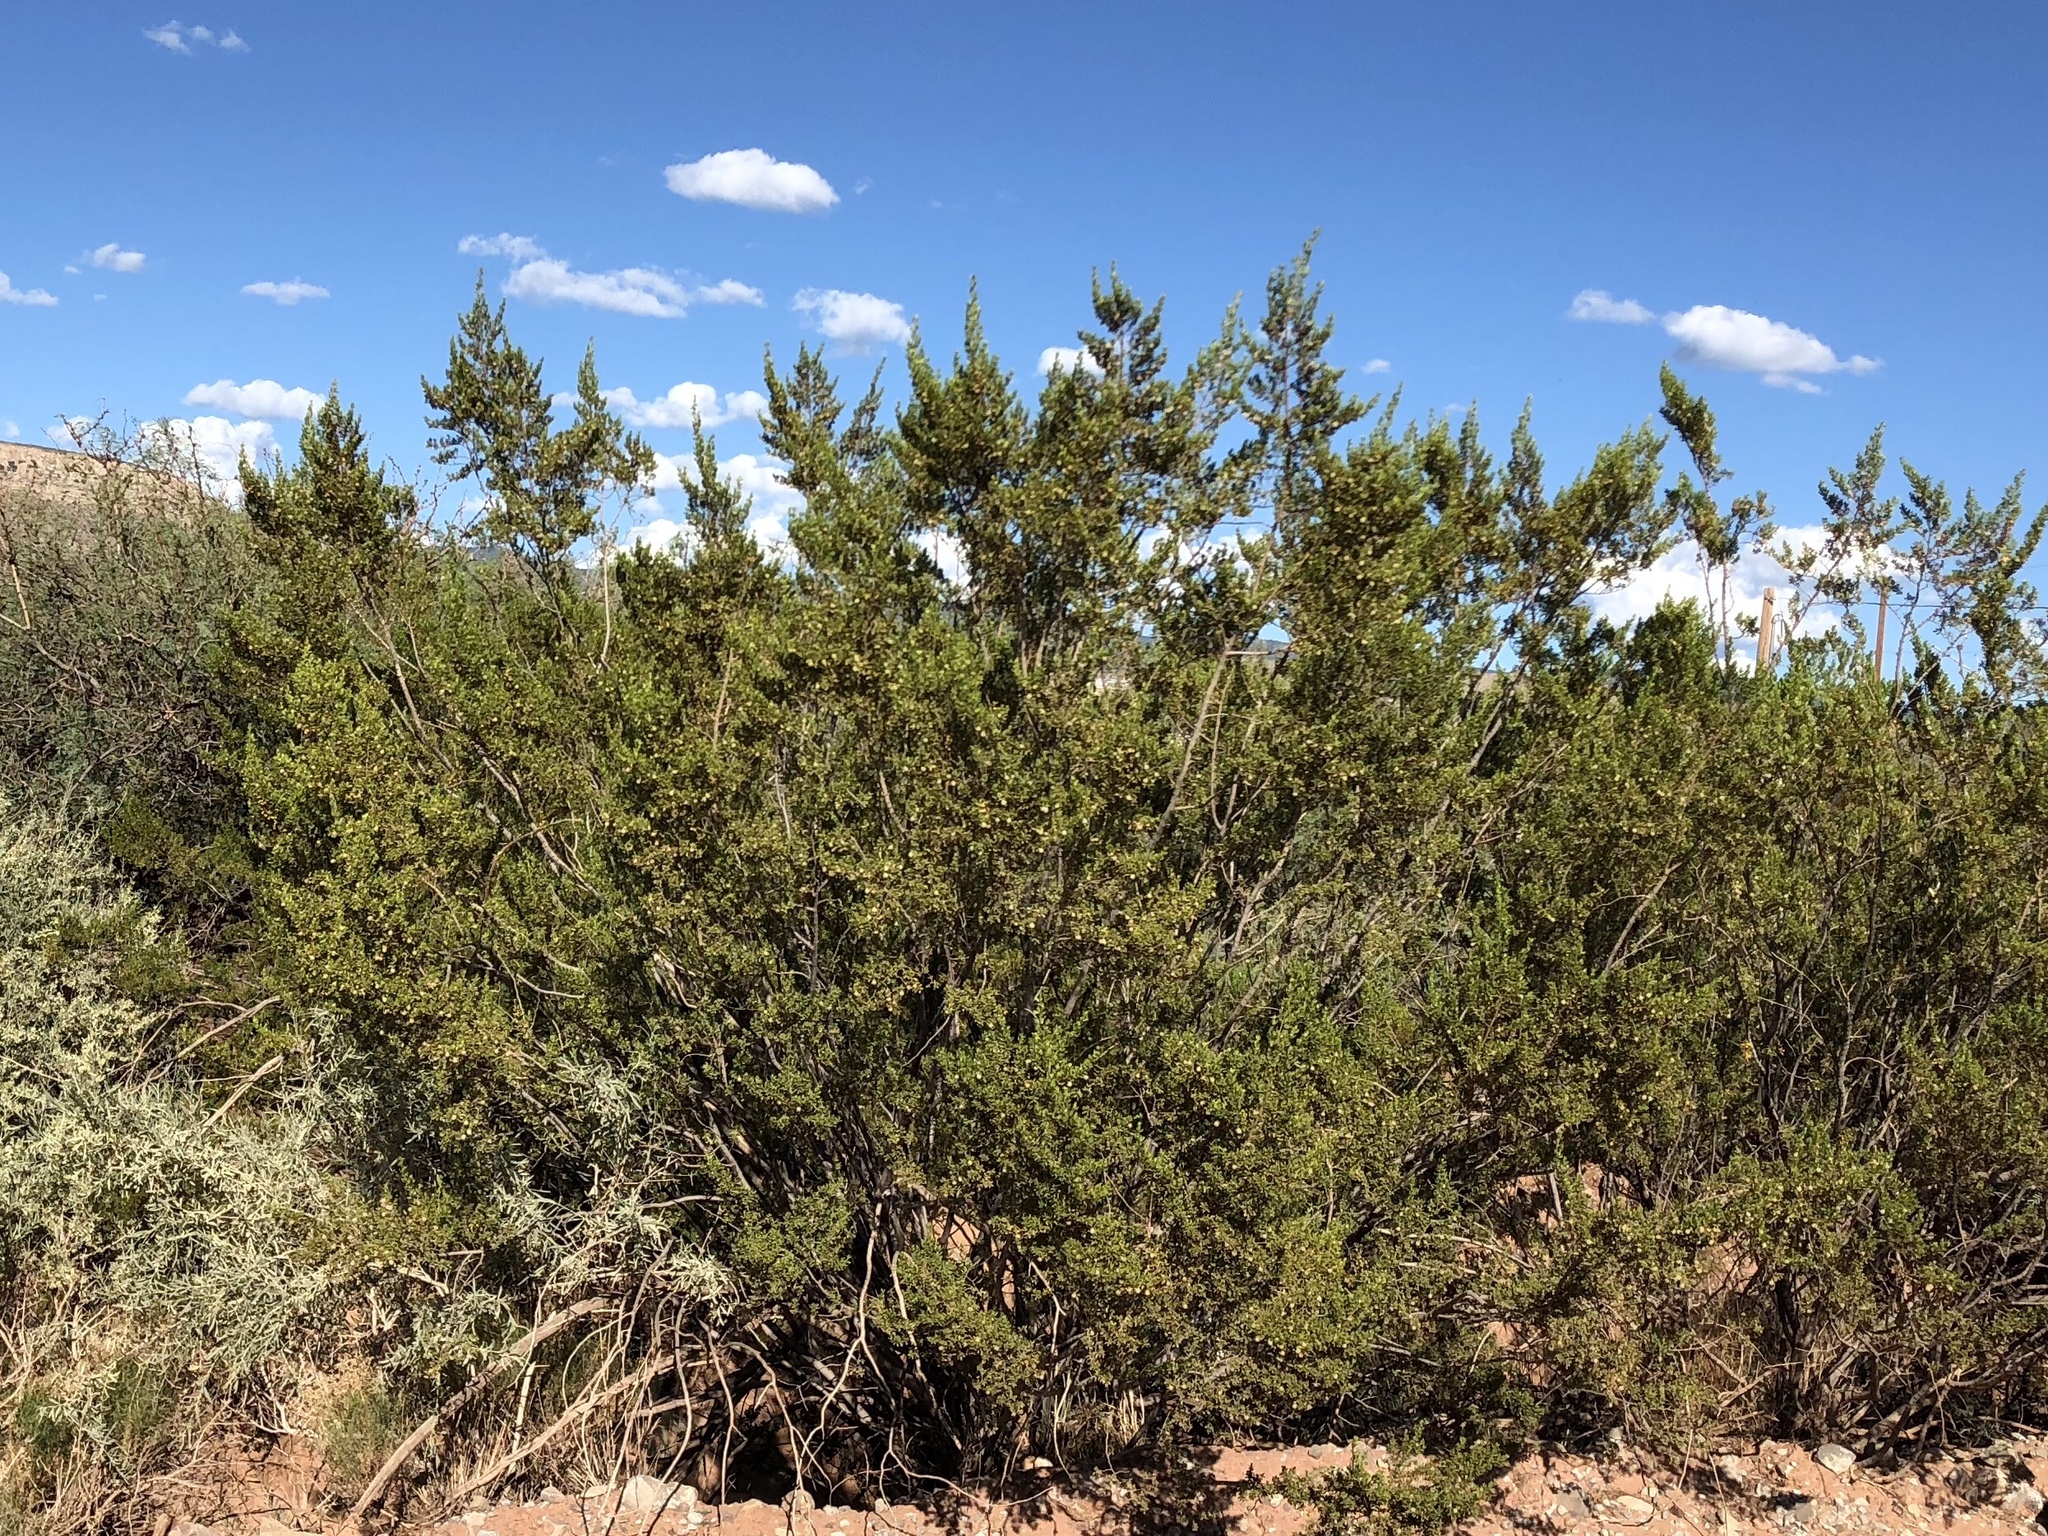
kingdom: Plantae
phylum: Tracheophyta
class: Magnoliopsida
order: Zygophyllales
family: Zygophyllaceae
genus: Larrea
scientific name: Larrea tridentata
